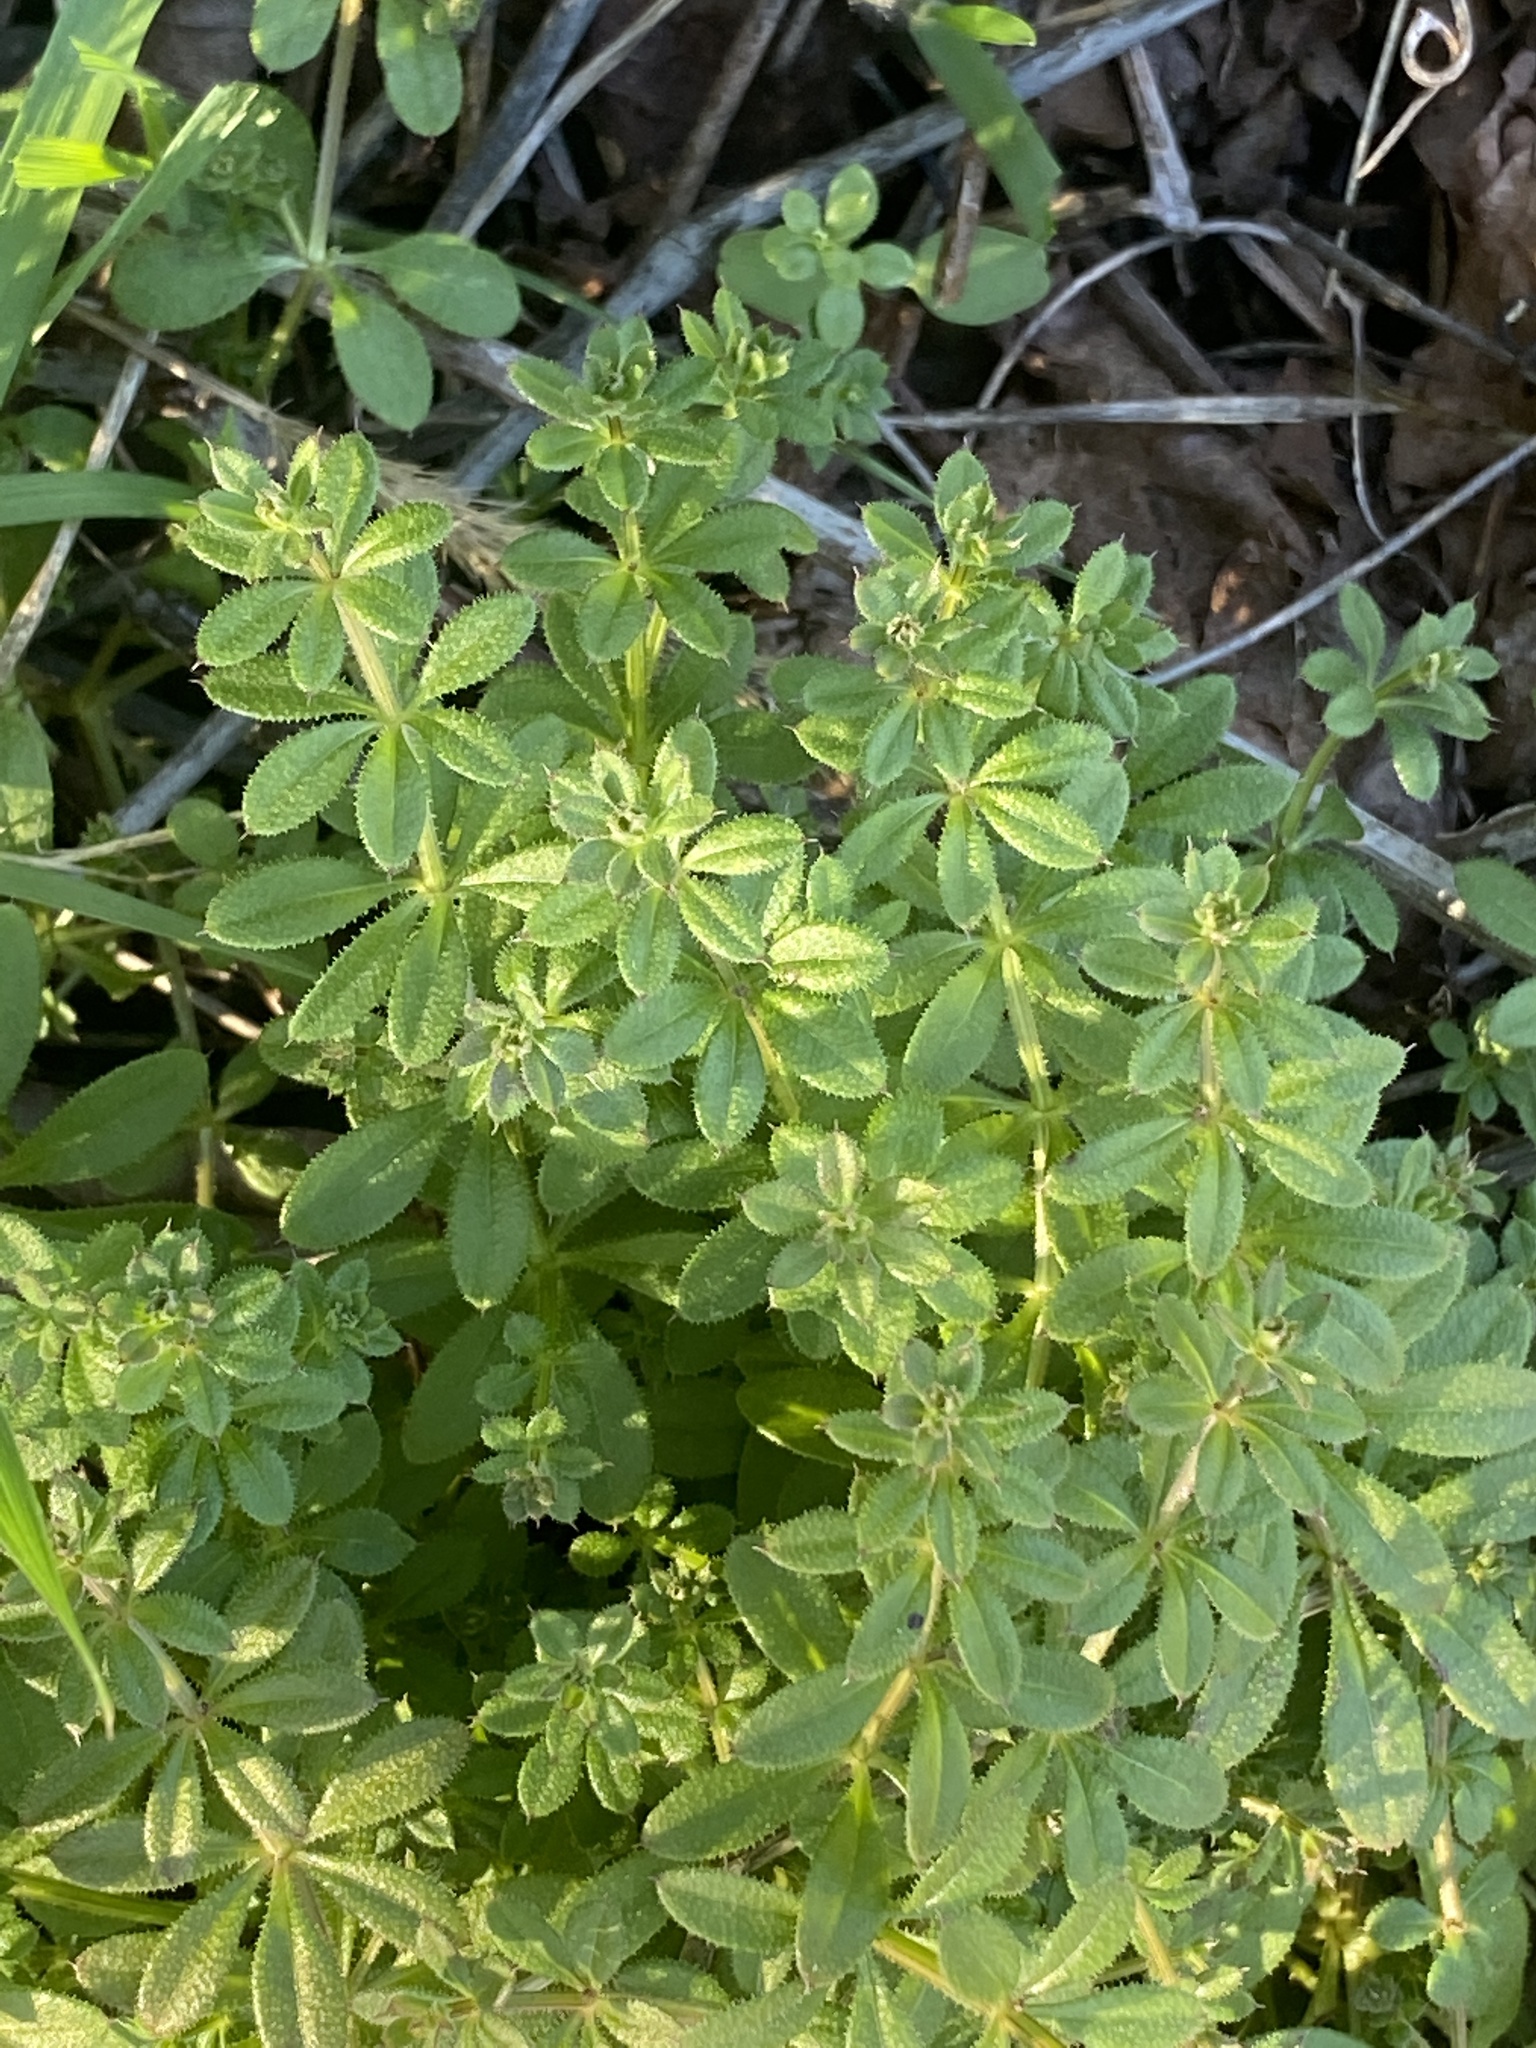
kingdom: Plantae
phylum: Tracheophyta
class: Magnoliopsida
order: Gentianales
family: Rubiaceae
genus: Galium
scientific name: Galium aparine
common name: Cleavers
